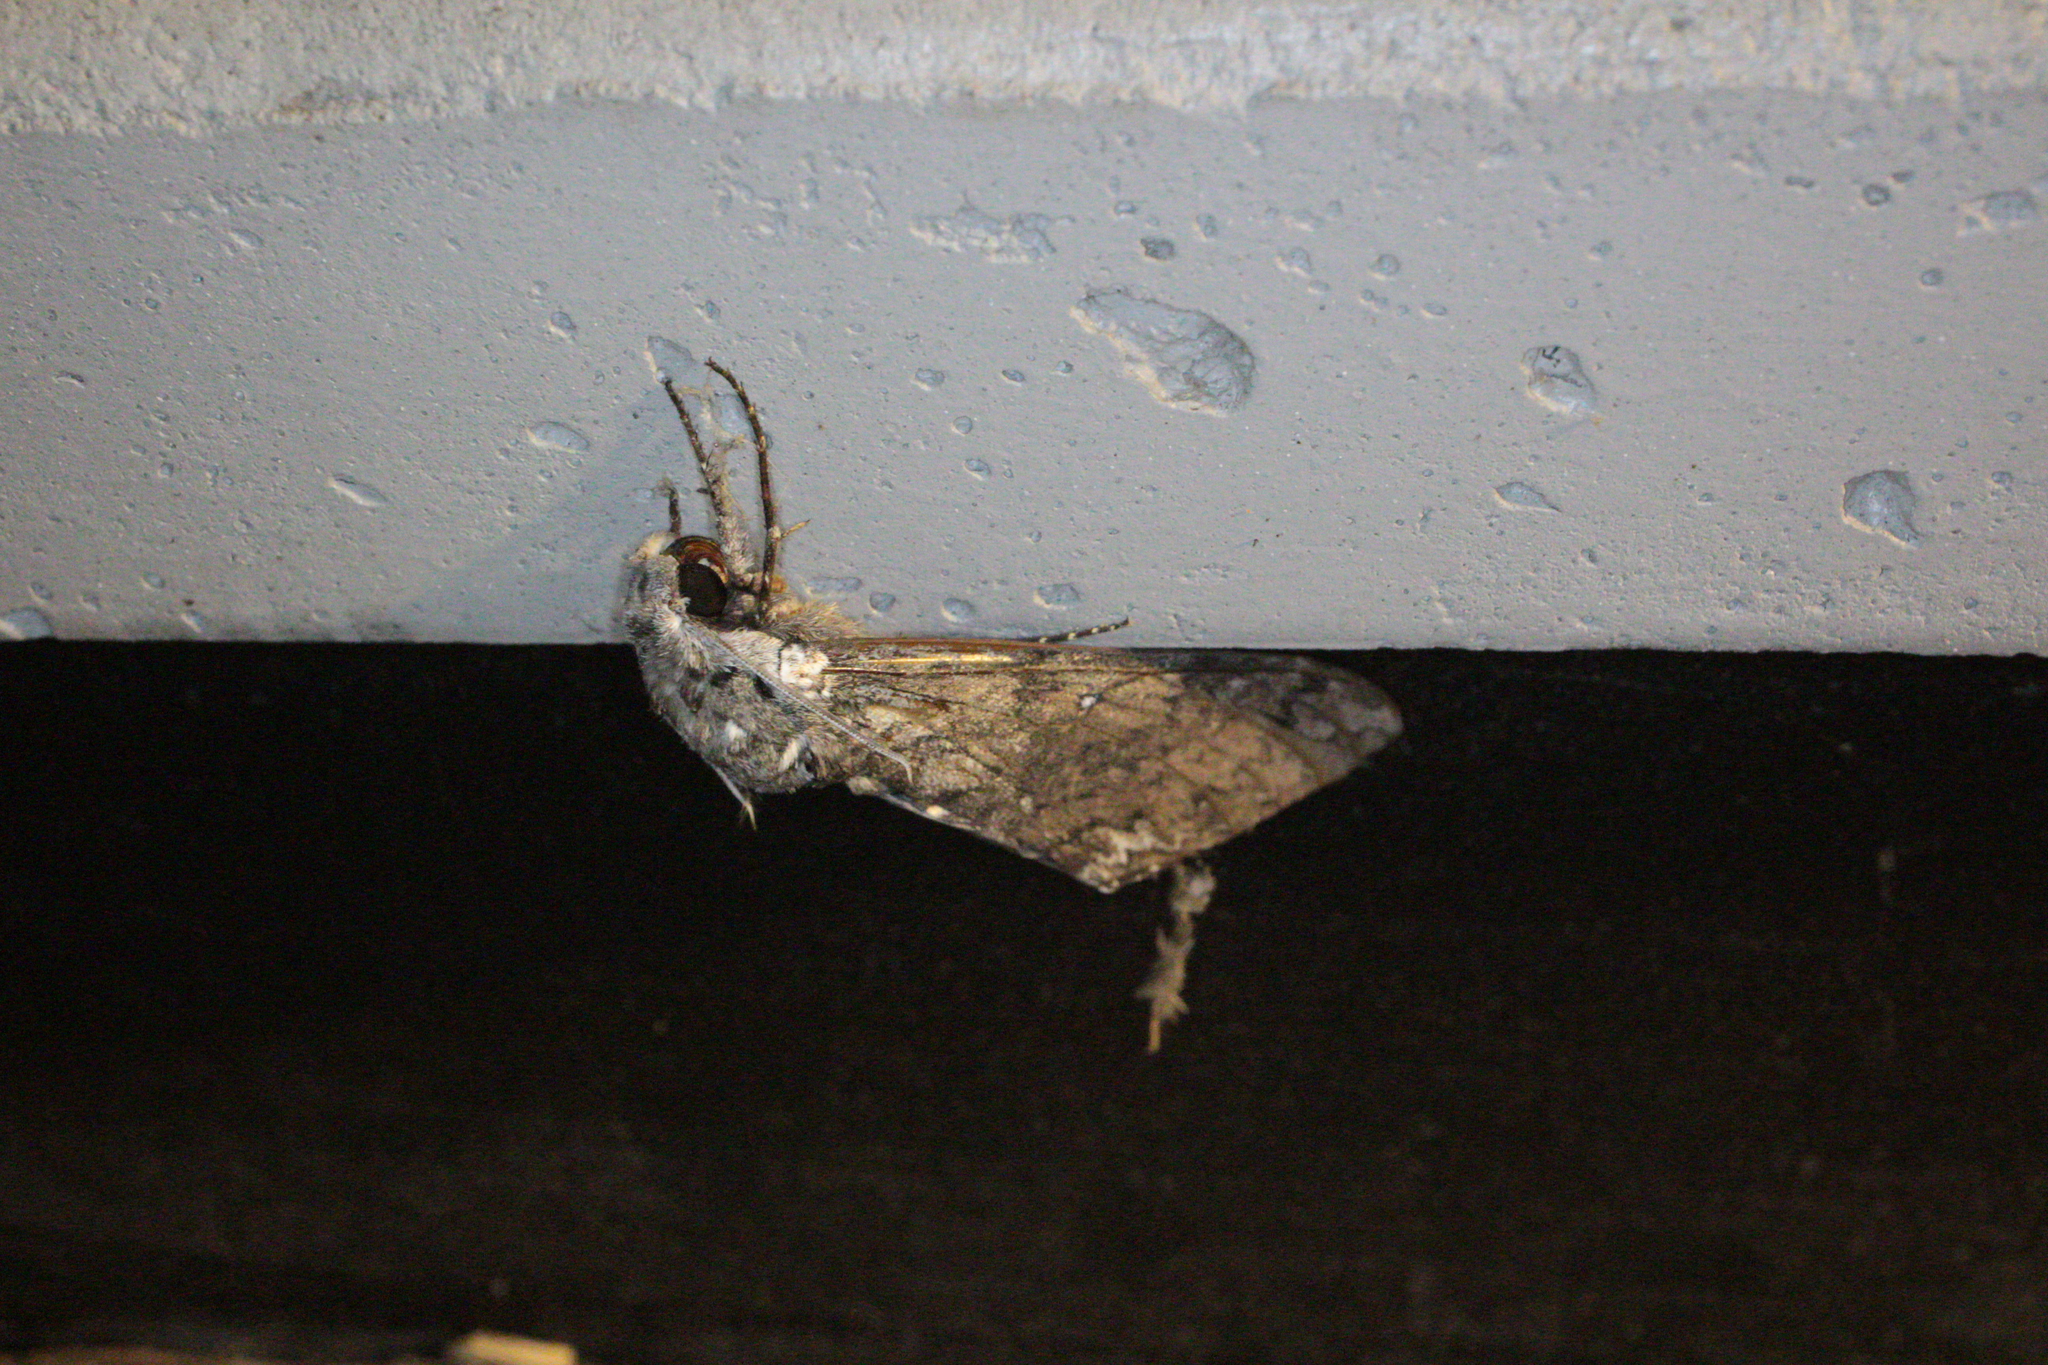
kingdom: Animalia
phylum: Arthropoda
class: Insecta
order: Lepidoptera
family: Sphingidae
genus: Manduca
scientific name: Manduca sexta
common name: Carolina sphinx
